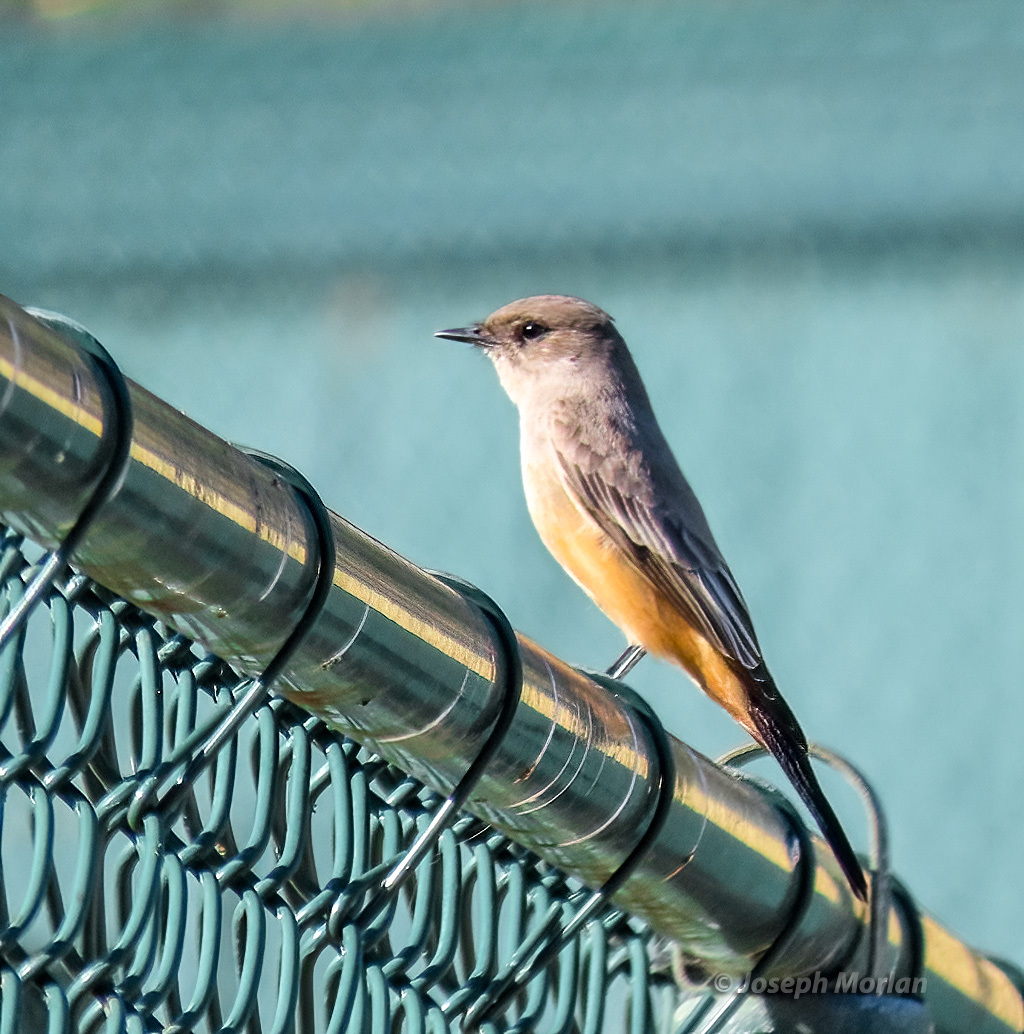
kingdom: Animalia
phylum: Chordata
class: Aves
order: Passeriformes
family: Tyrannidae
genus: Sayornis
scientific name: Sayornis saya
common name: Say's phoebe
